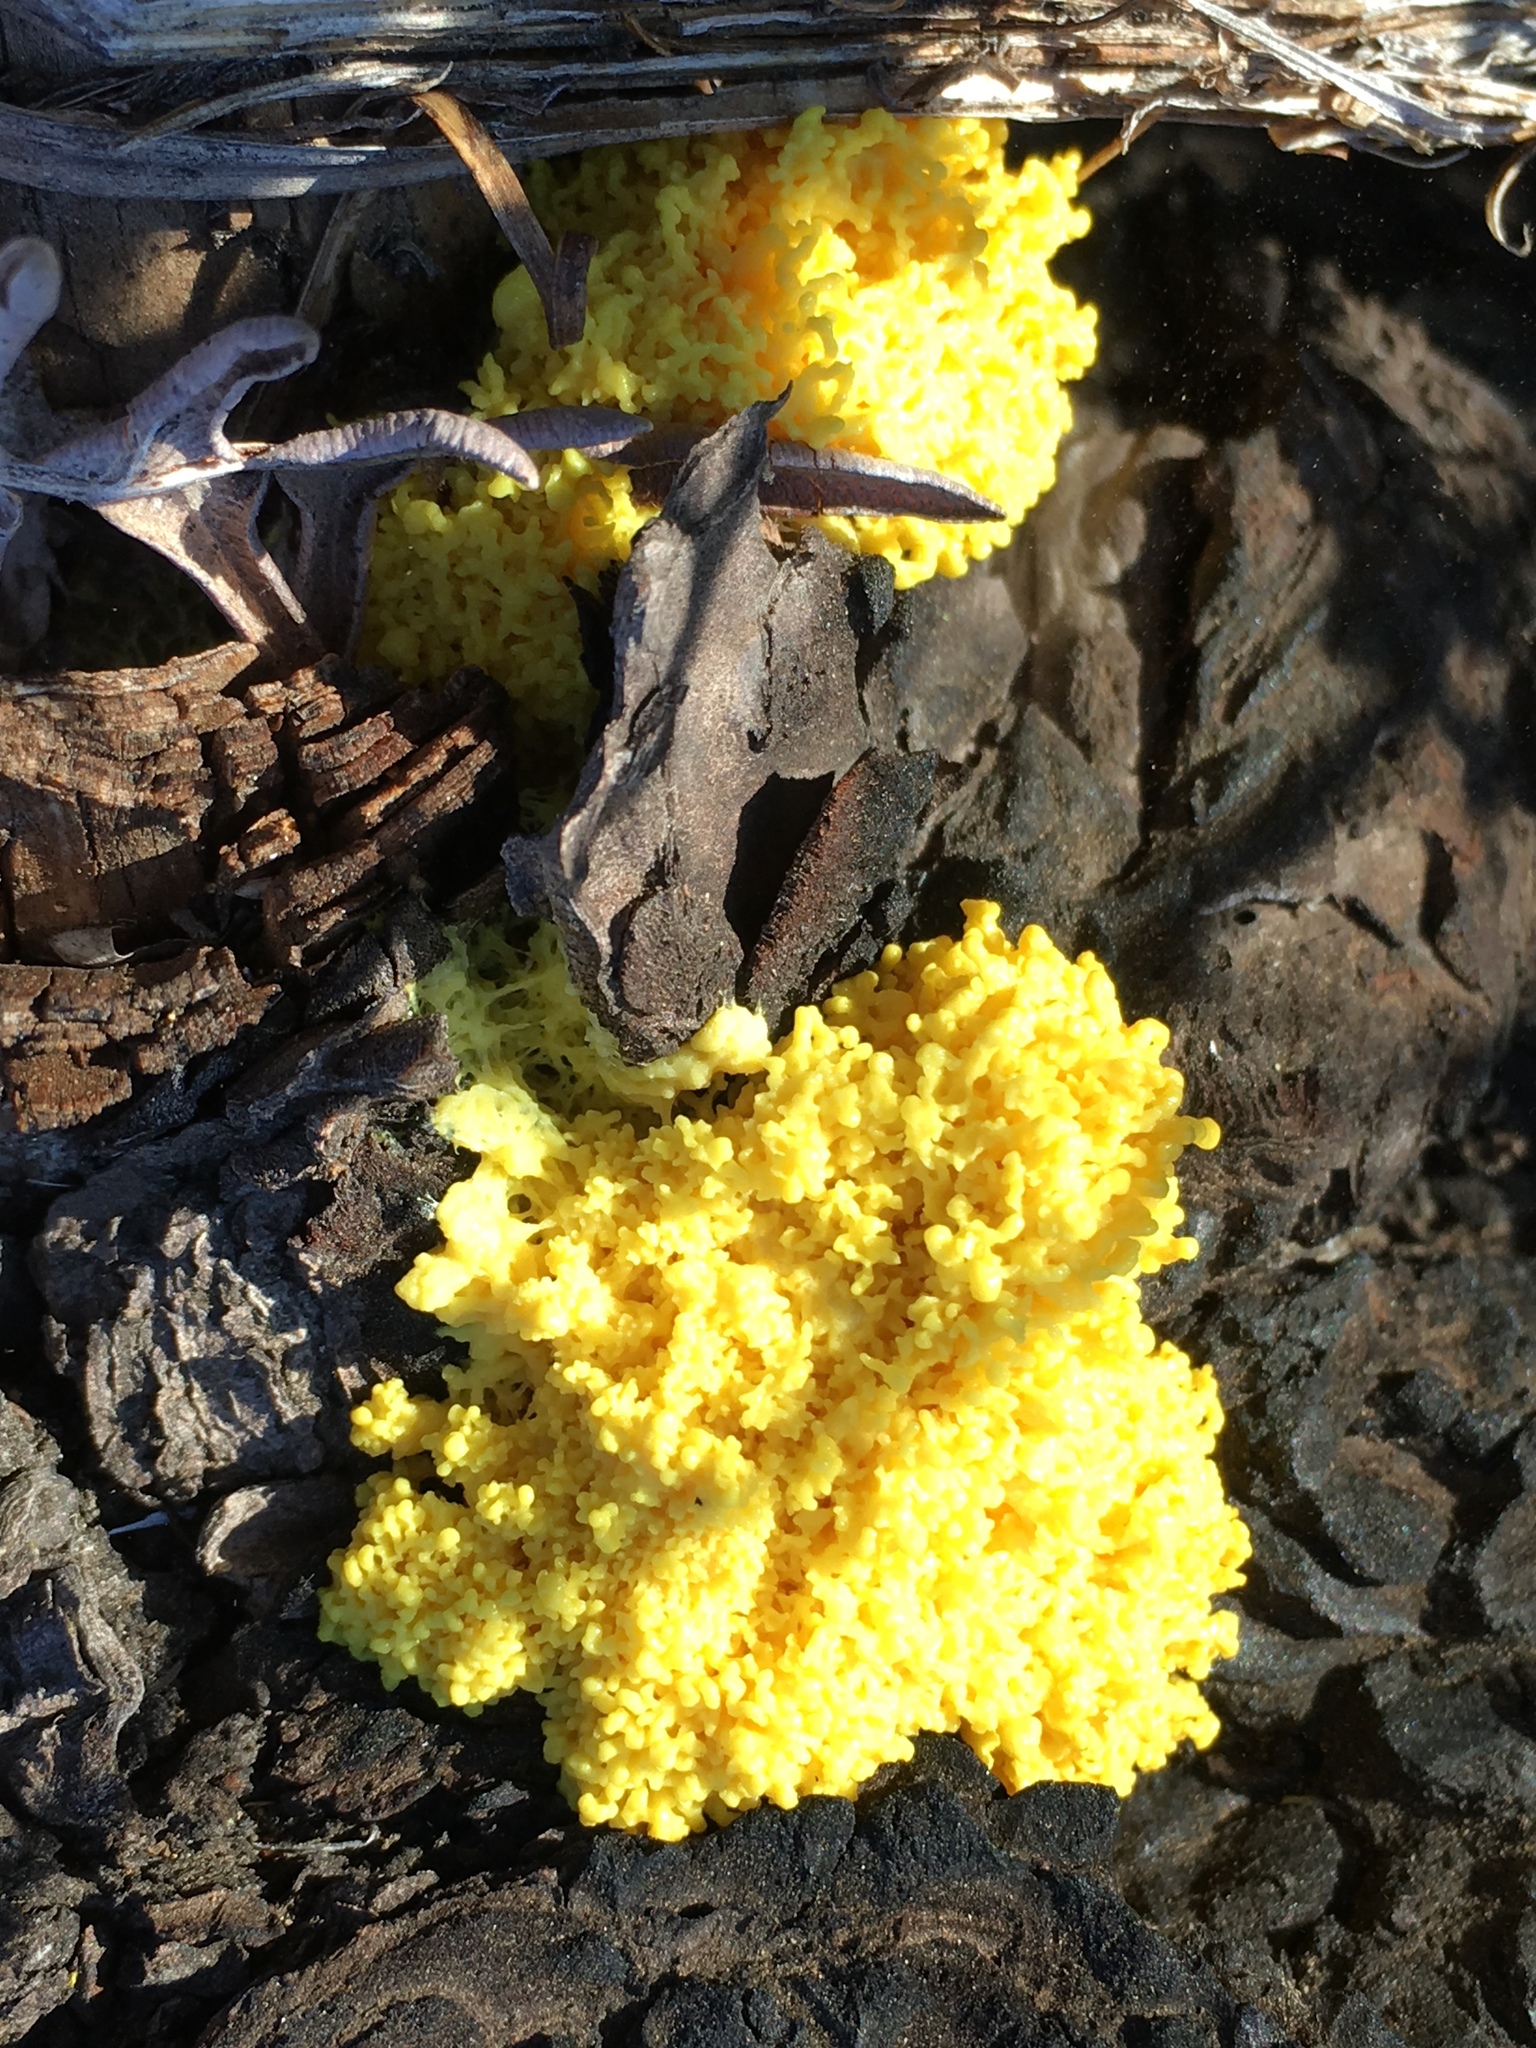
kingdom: Protozoa
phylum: Mycetozoa
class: Myxomycetes
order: Physarales
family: Physaraceae
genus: Fuligo
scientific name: Fuligo septica
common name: Dog vomit slime mold
